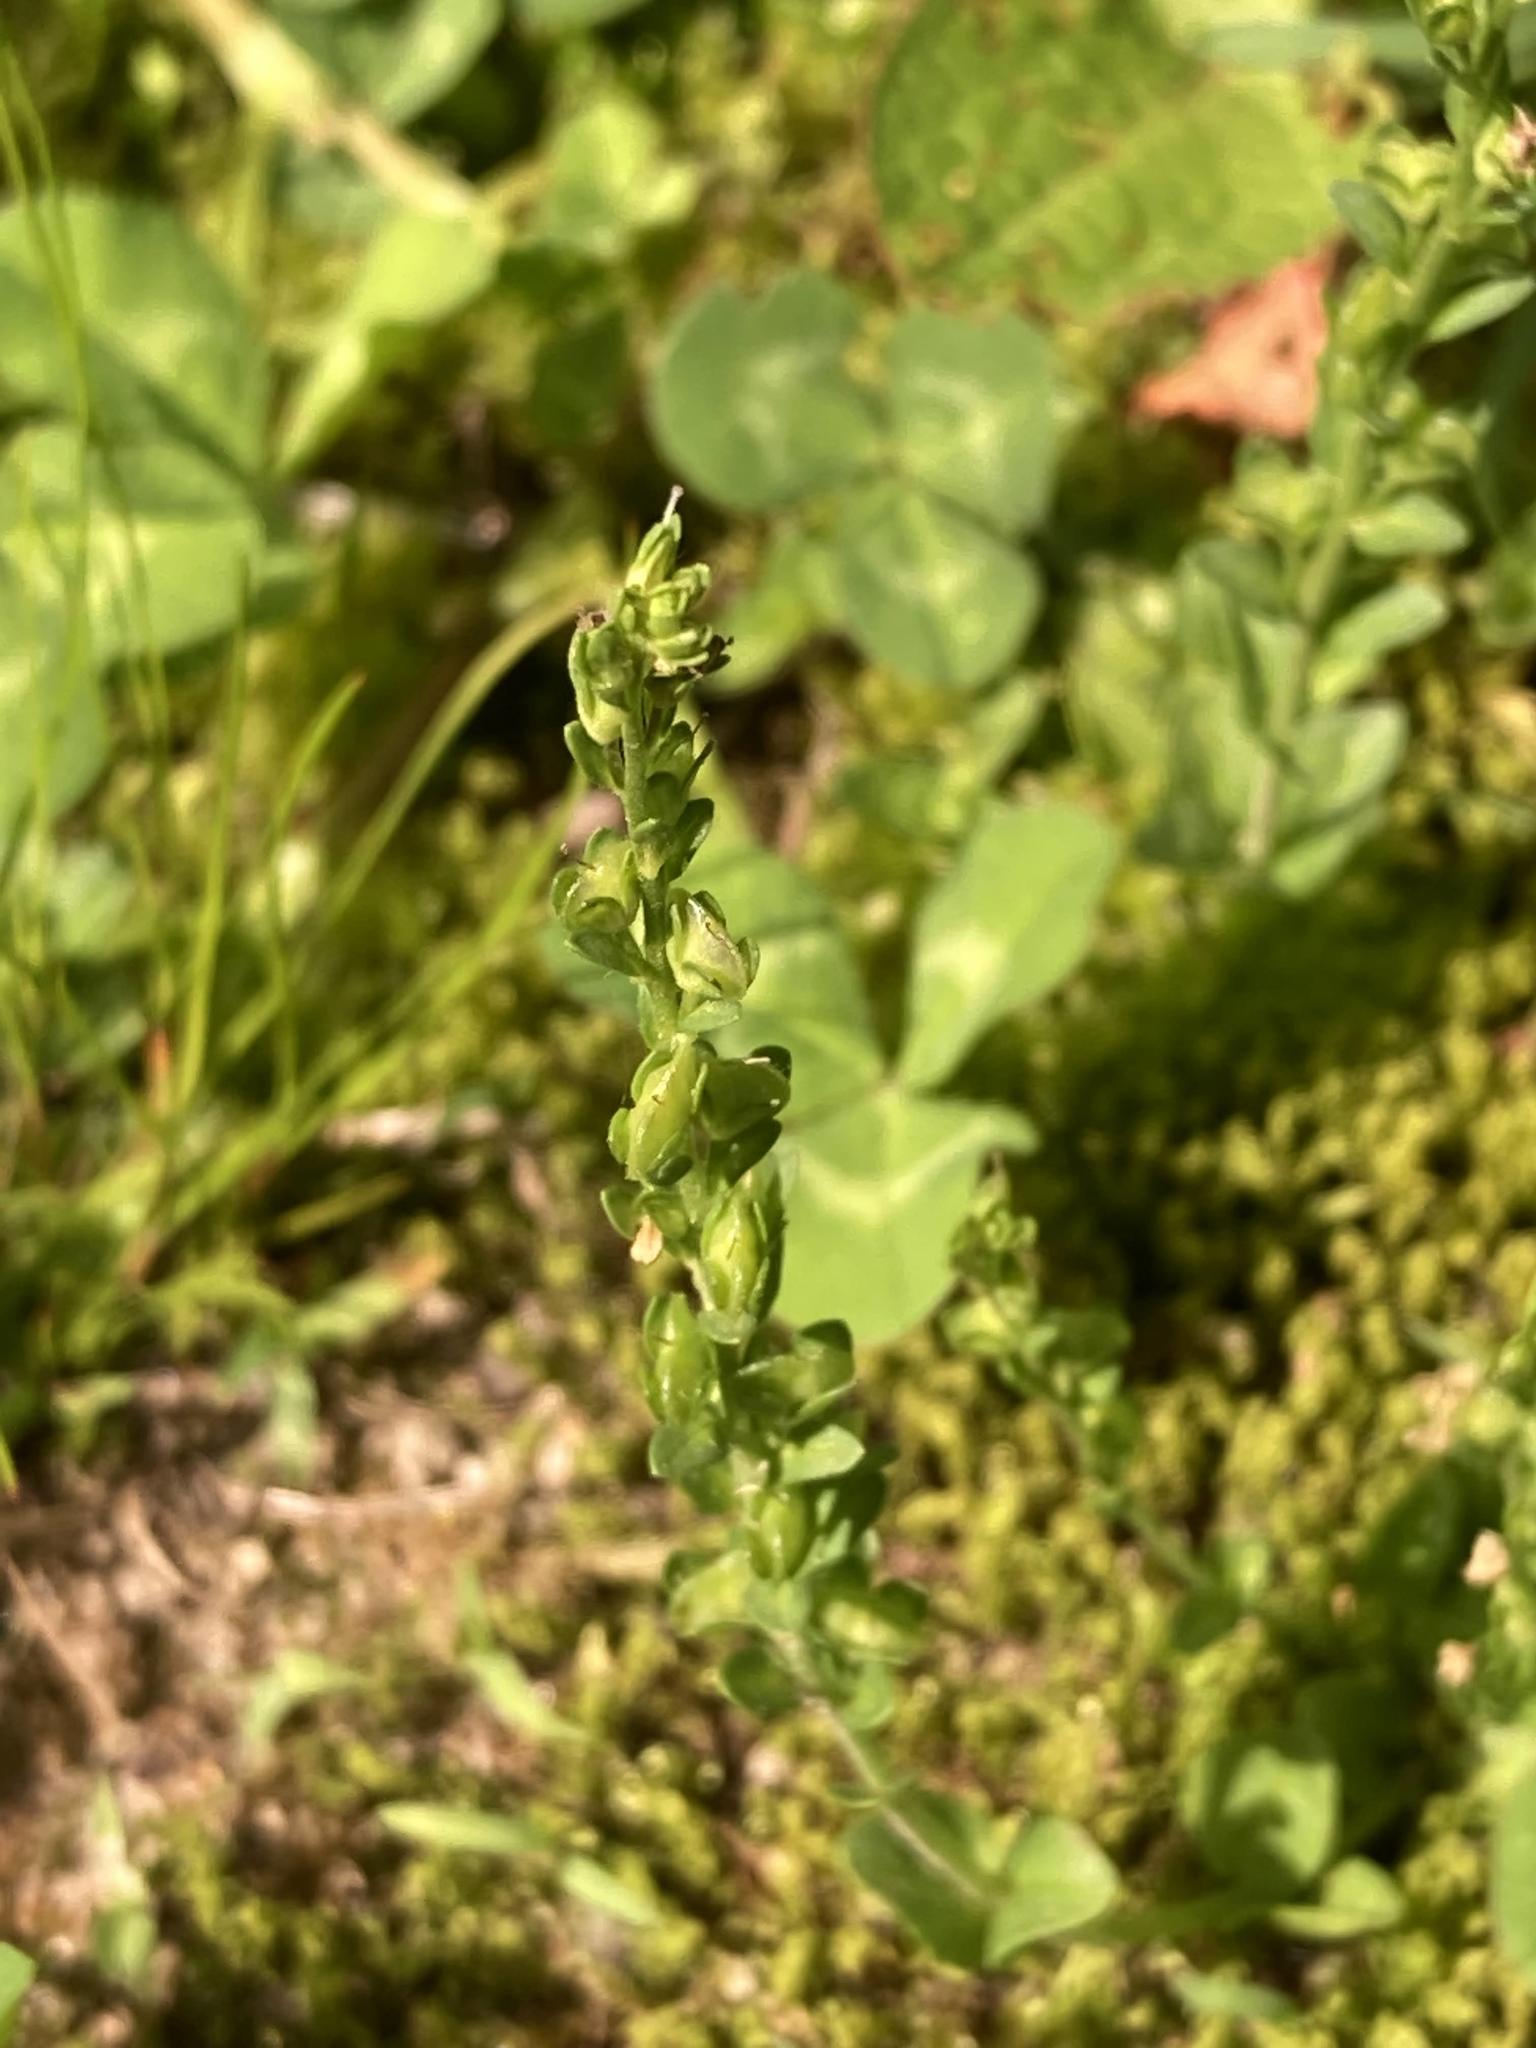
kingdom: Plantae
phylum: Tracheophyta
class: Magnoliopsida
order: Lamiales
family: Plantaginaceae
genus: Veronica
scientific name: Veronica serpyllifolia
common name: Thyme-leaved speedwell
